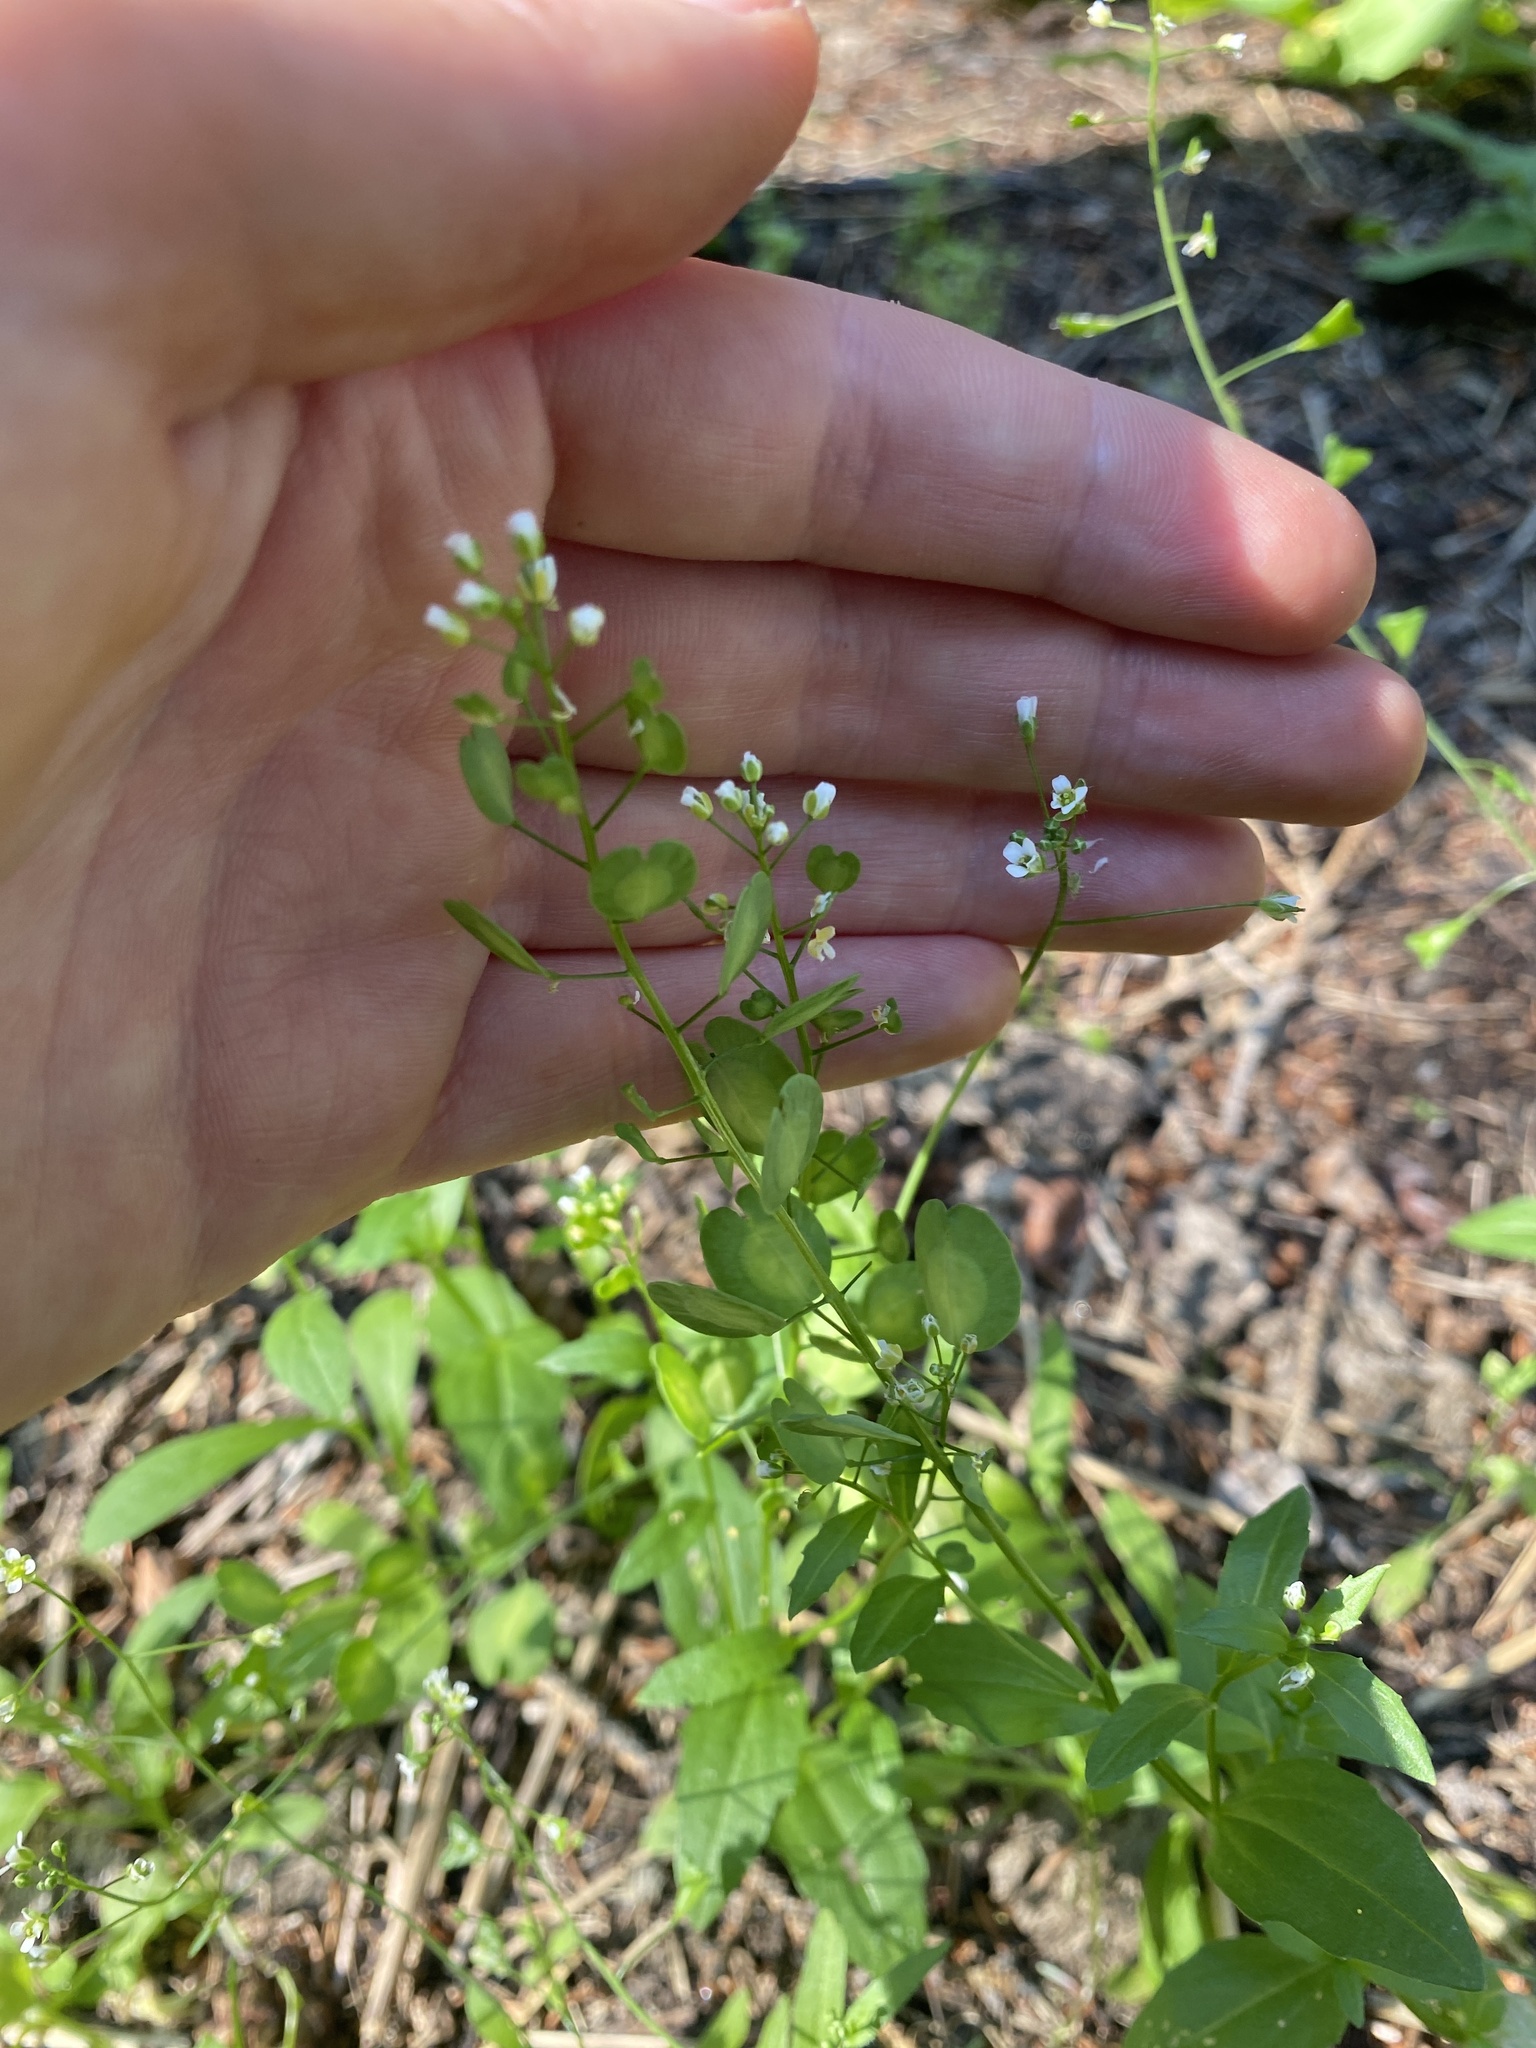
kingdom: Plantae
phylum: Tracheophyta
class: Magnoliopsida
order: Brassicales
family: Brassicaceae
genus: Thlaspi
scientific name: Thlaspi arvense
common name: Field pennycress
